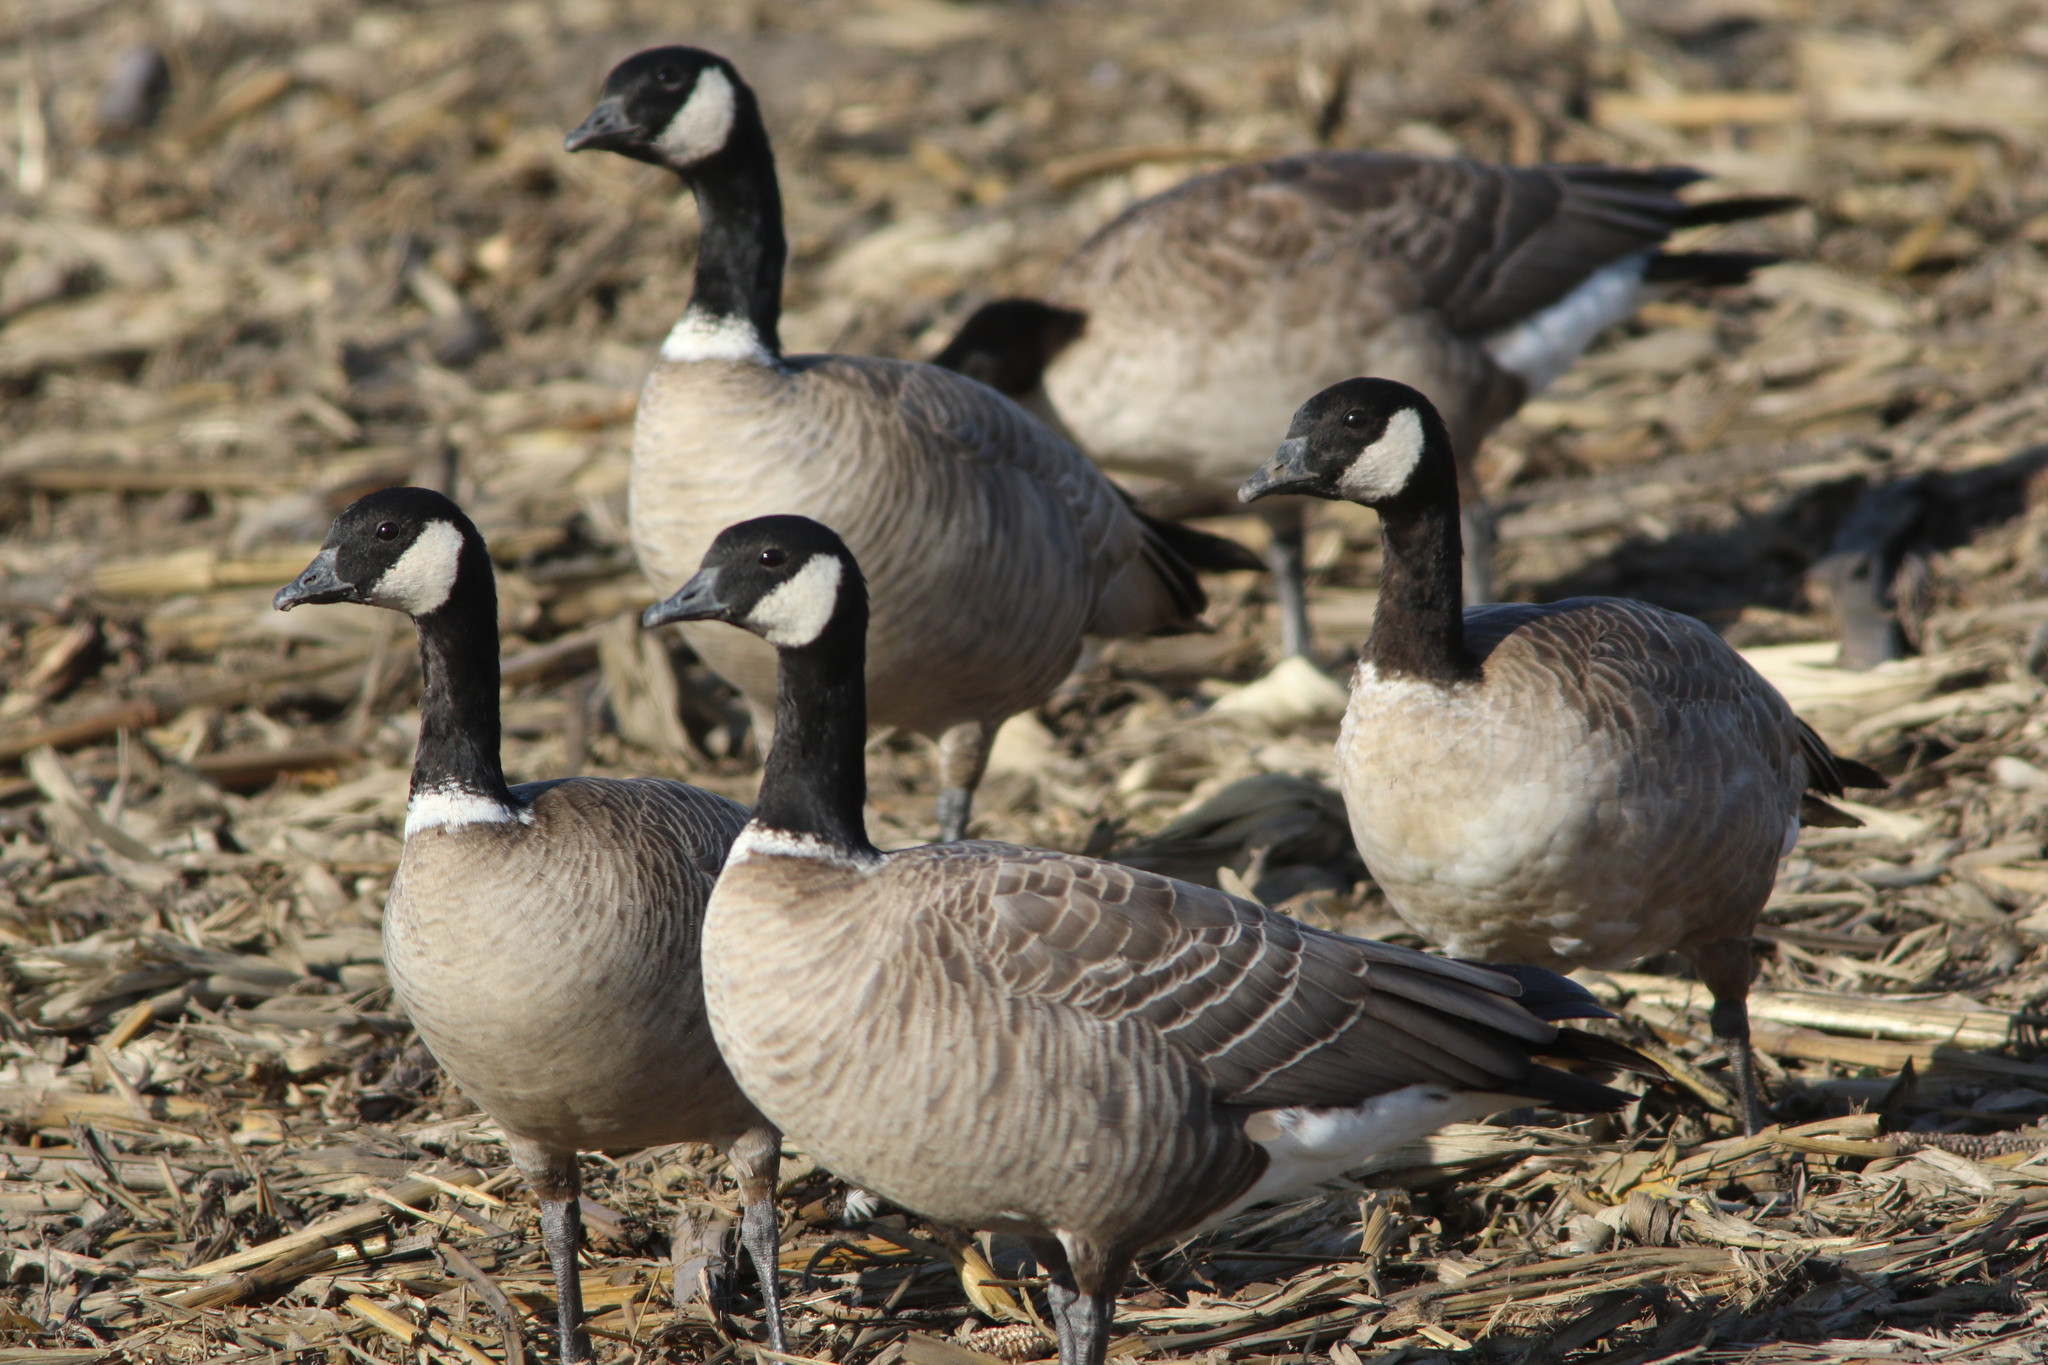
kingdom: Animalia
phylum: Chordata
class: Aves
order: Anseriformes
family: Anatidae
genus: Branta
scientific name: Branta hutchinsii
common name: Cackling goose
